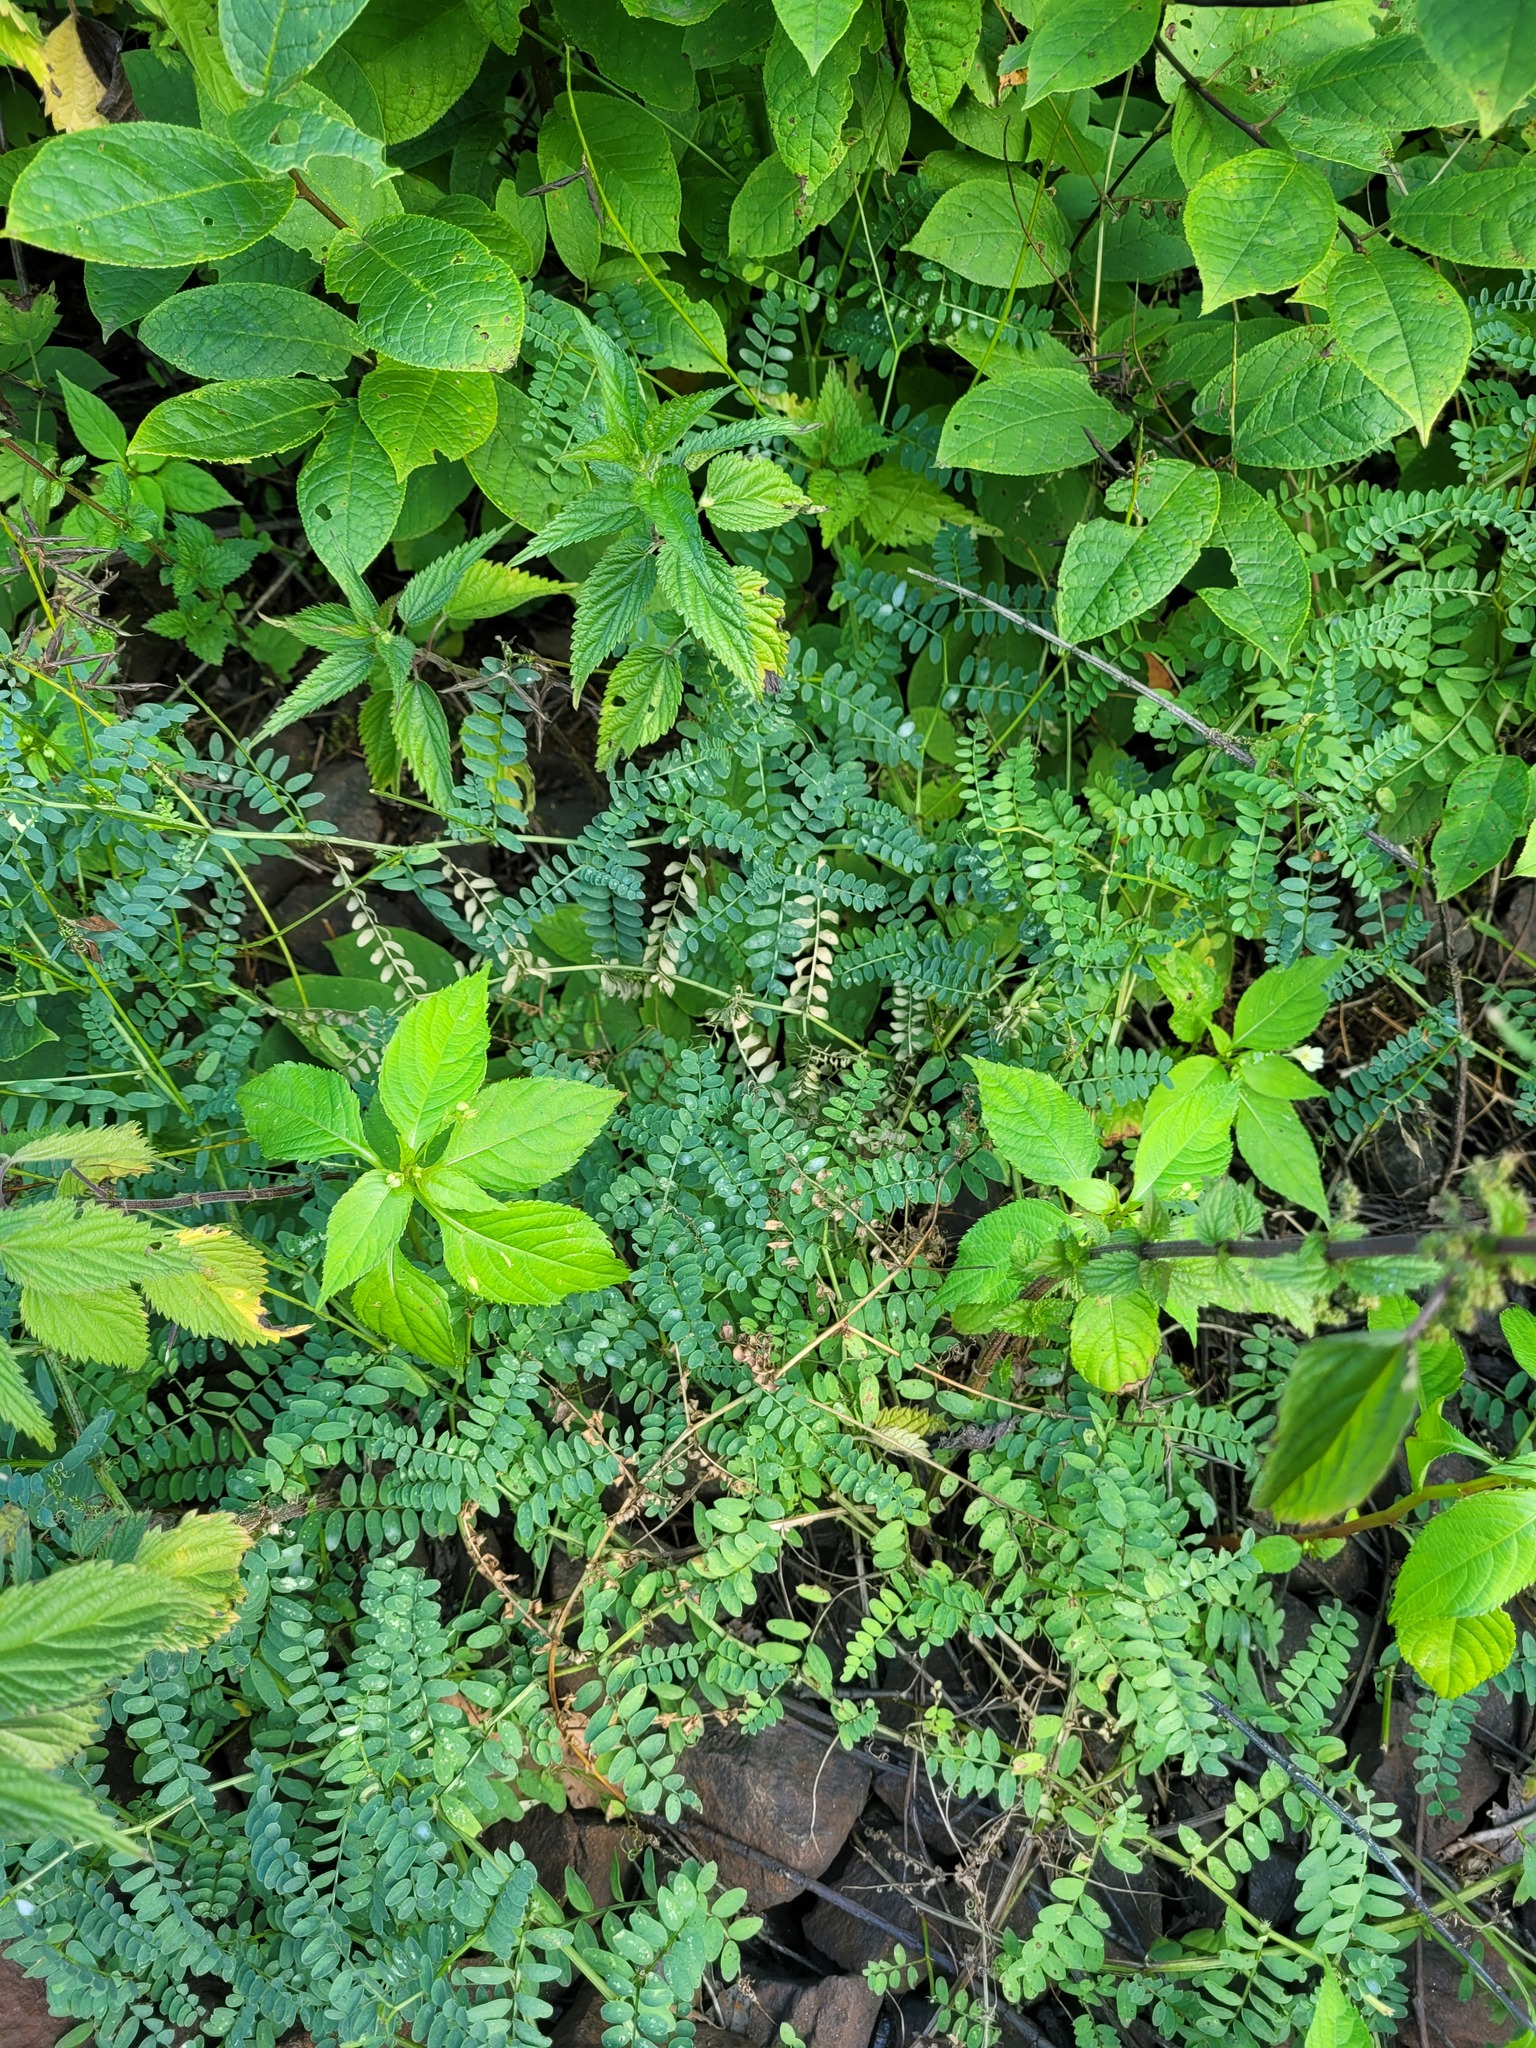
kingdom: Plantae
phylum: Tracheophyta
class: Magnoliopsida
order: Fabales
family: Fabaceae
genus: Vicia
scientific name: Vicia sylvatica
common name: Wood vetch
